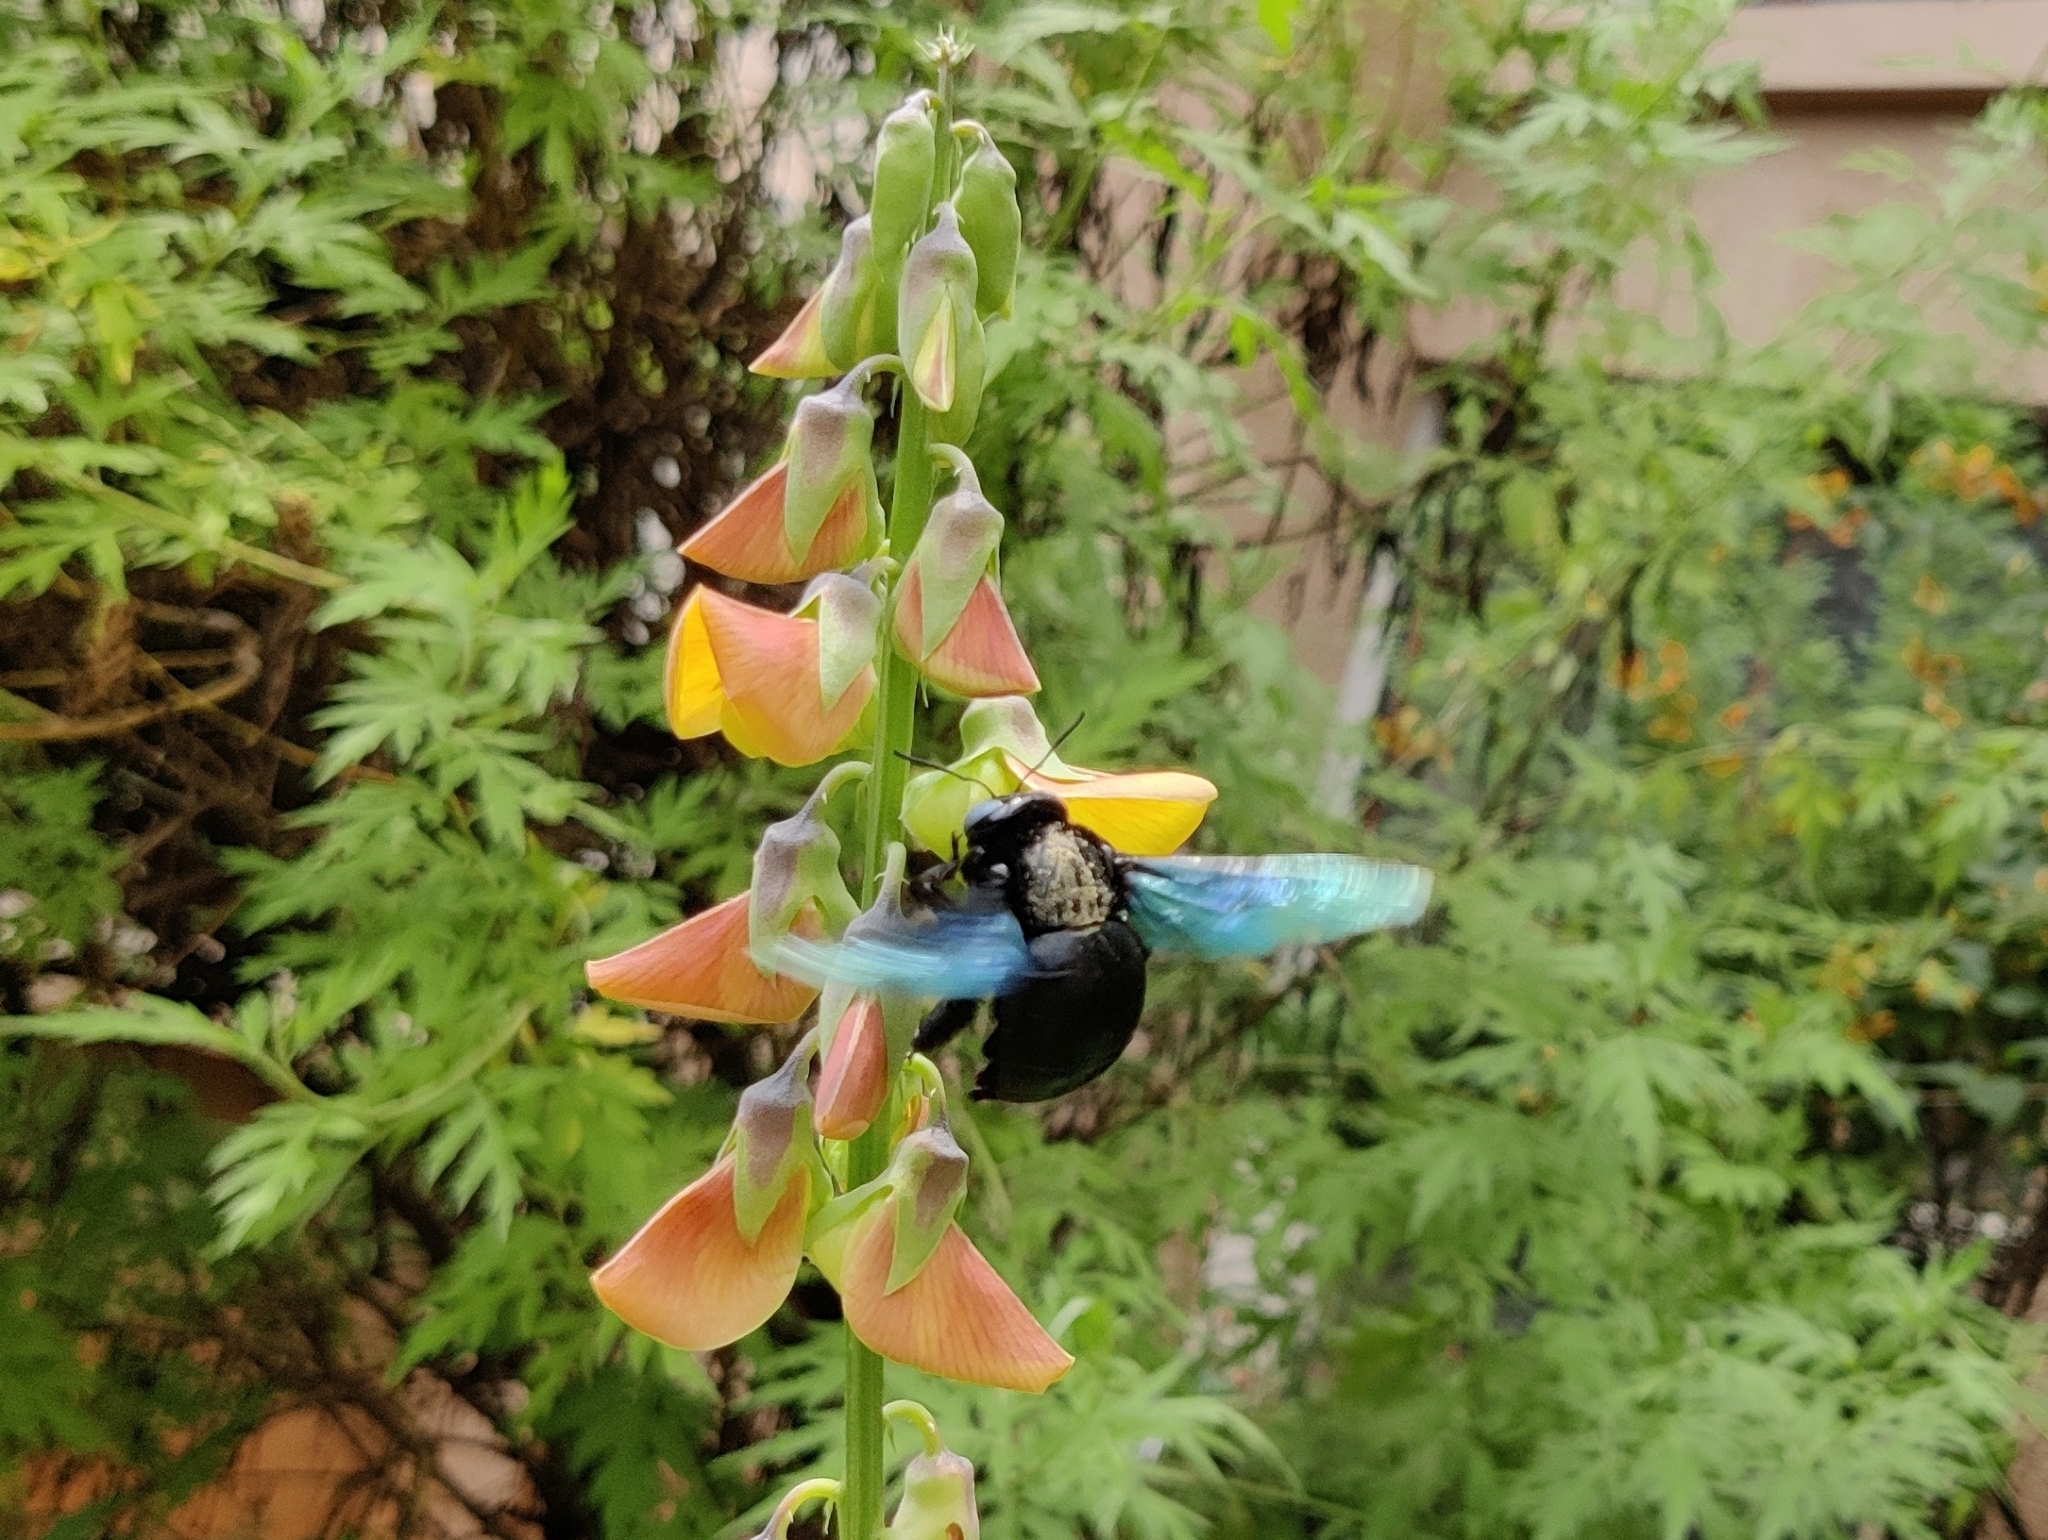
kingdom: Animalia
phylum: Arthropoda
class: Insecta
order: Hymenoptera
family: Apidae
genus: Xylocopa
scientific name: Xylocopa tenuiscapa
